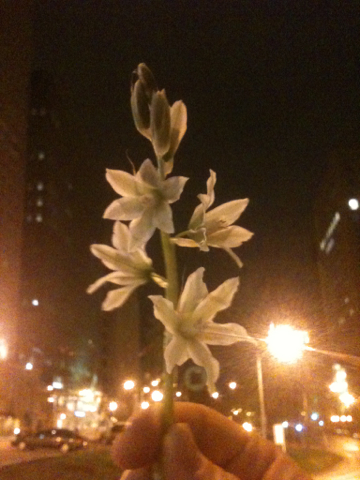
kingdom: Plantae
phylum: Tracheophyta
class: Liliopsida
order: Asparagales
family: Asparagaceae
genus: Ornithogalum
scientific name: Ornithogalum nutans
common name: Drooping star-of-bethlehem
